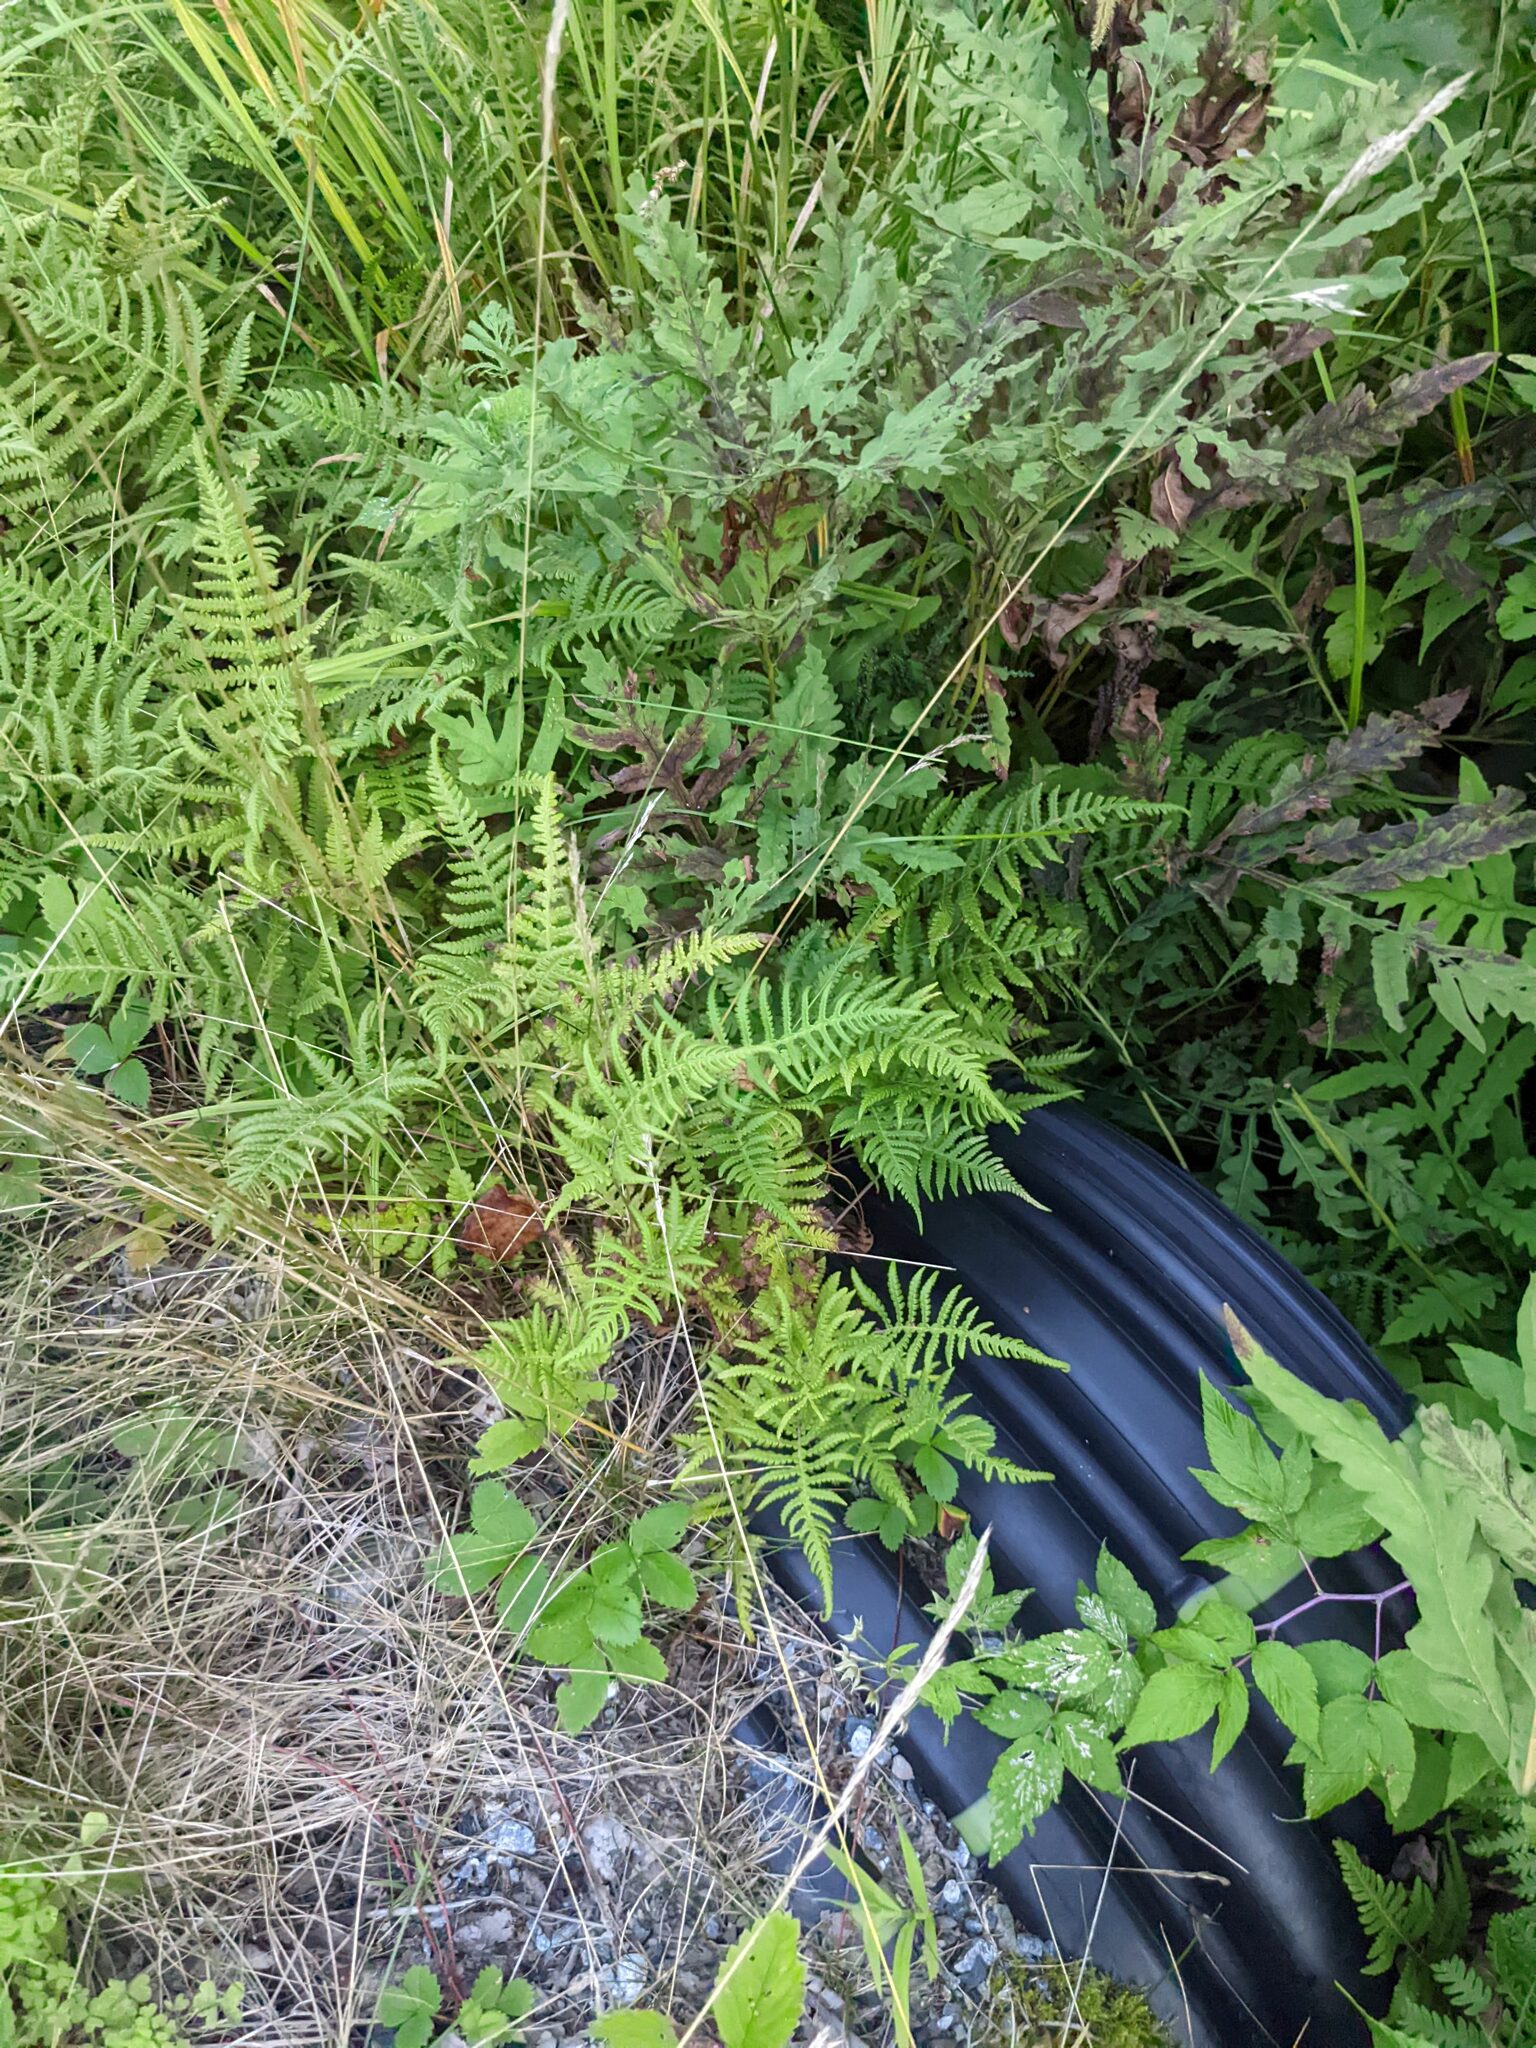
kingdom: Plantae
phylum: Tracheophyta
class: Polypodiopsida
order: Polypodiales
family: Thelypteridaceae
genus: Thelypteris
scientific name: Thelypteris palustris
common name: Marsh fern
